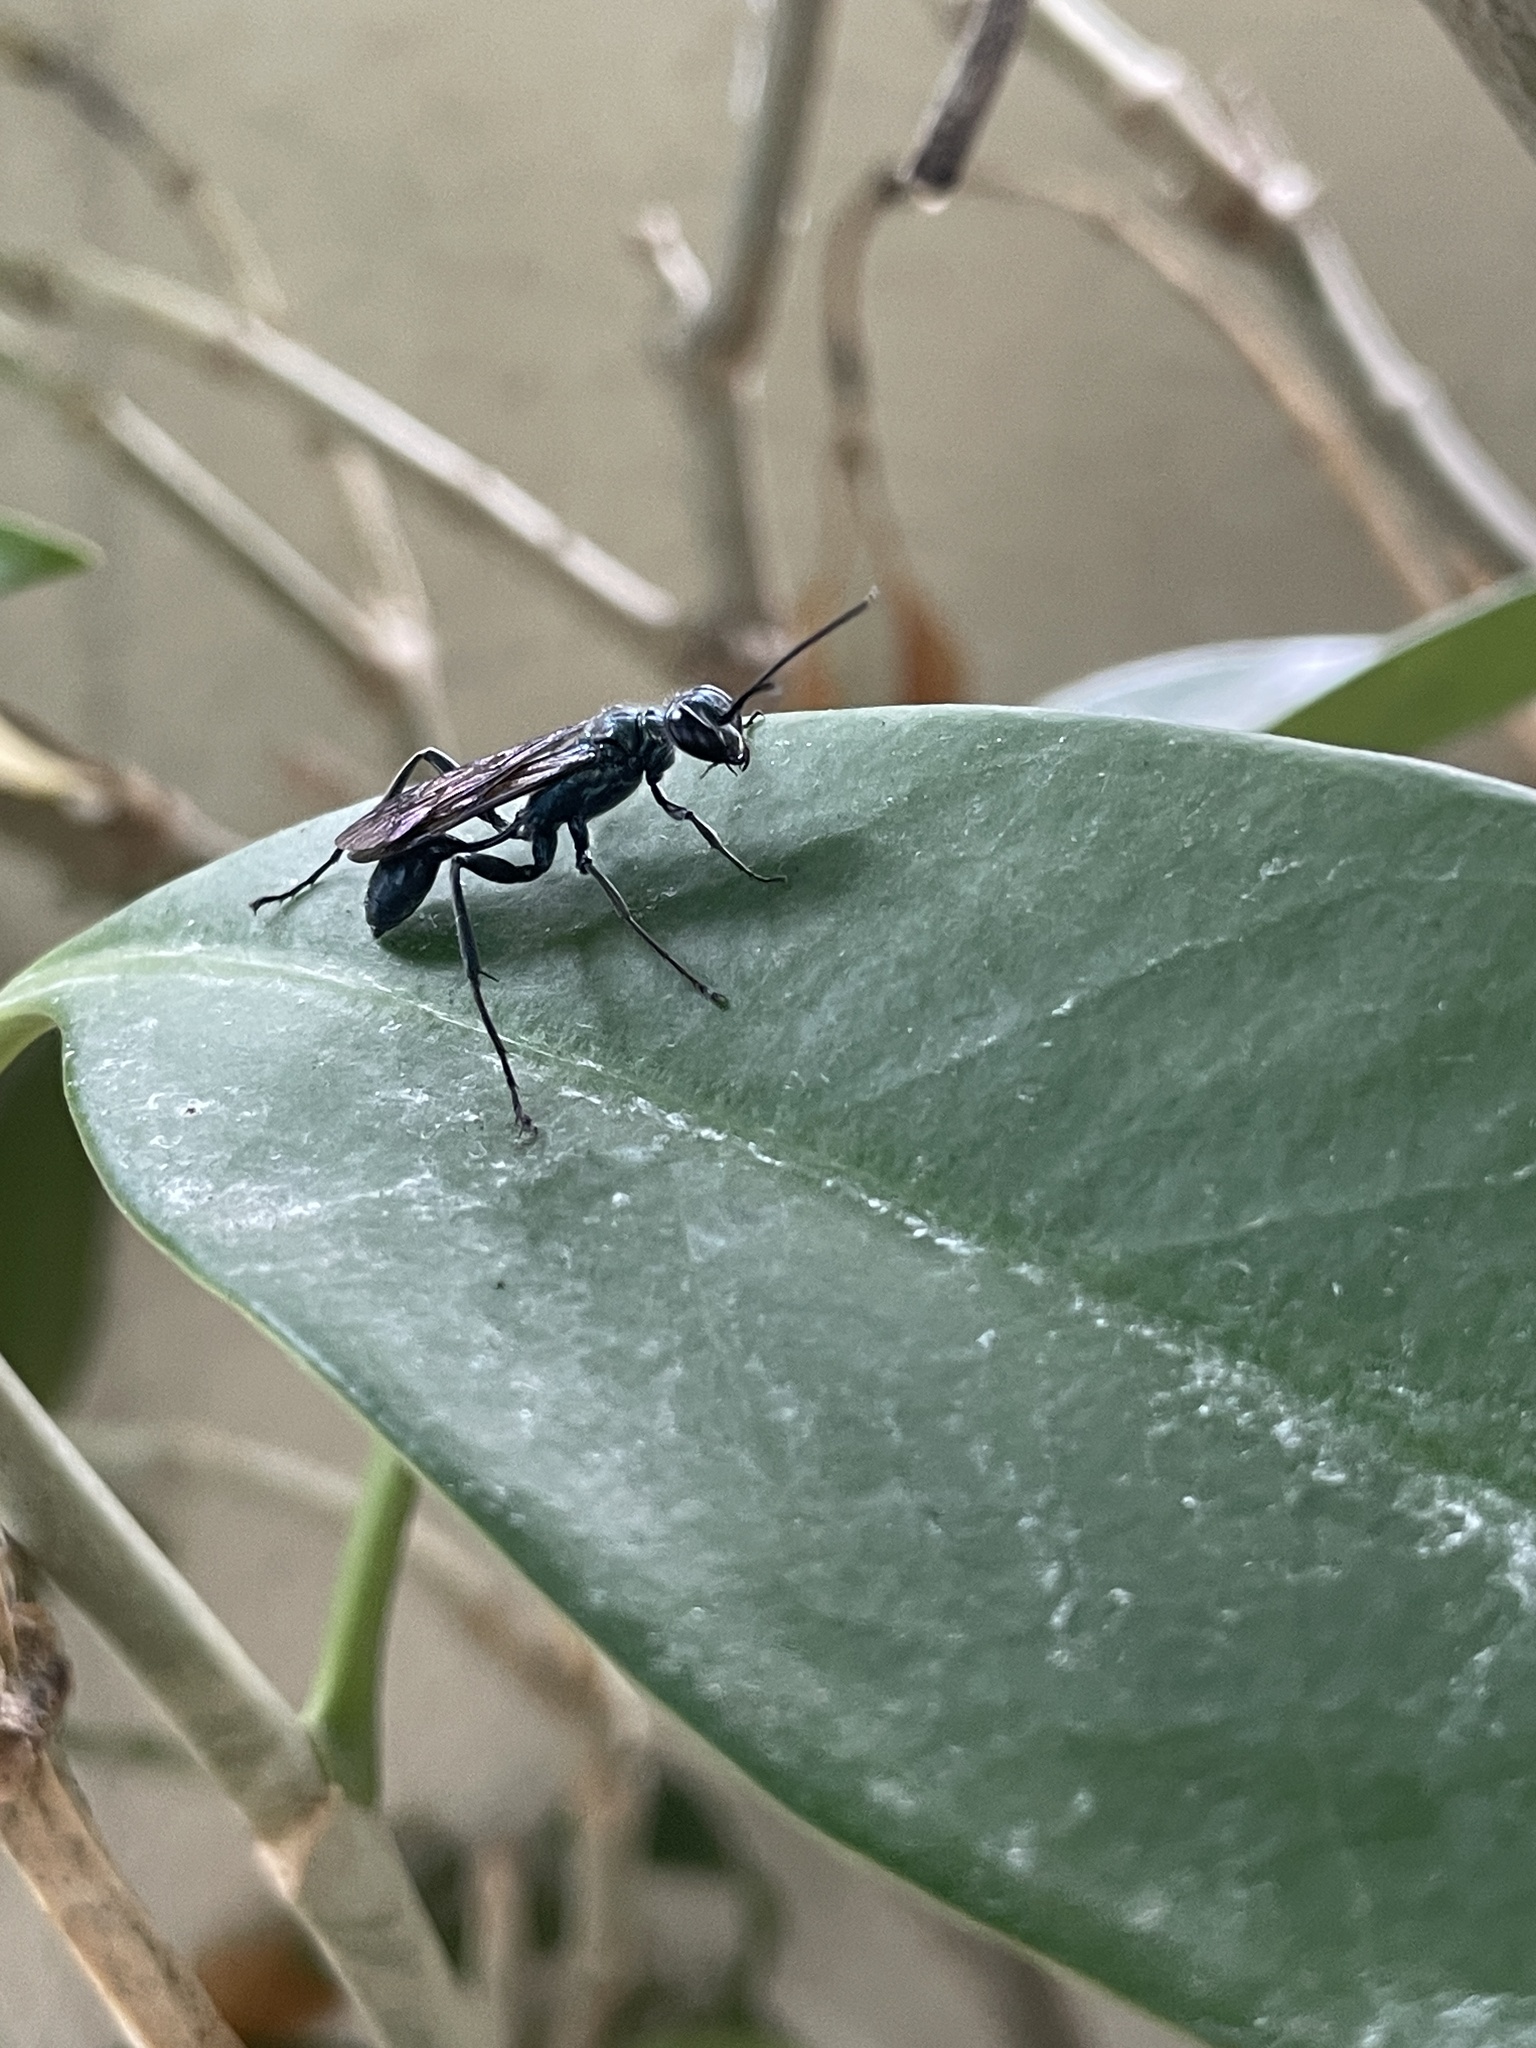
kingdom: Animalia
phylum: Arthropoda
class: Insecta
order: Hymenoptera
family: Sphecidae
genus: Chalybion
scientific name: Chalybion japonicum
